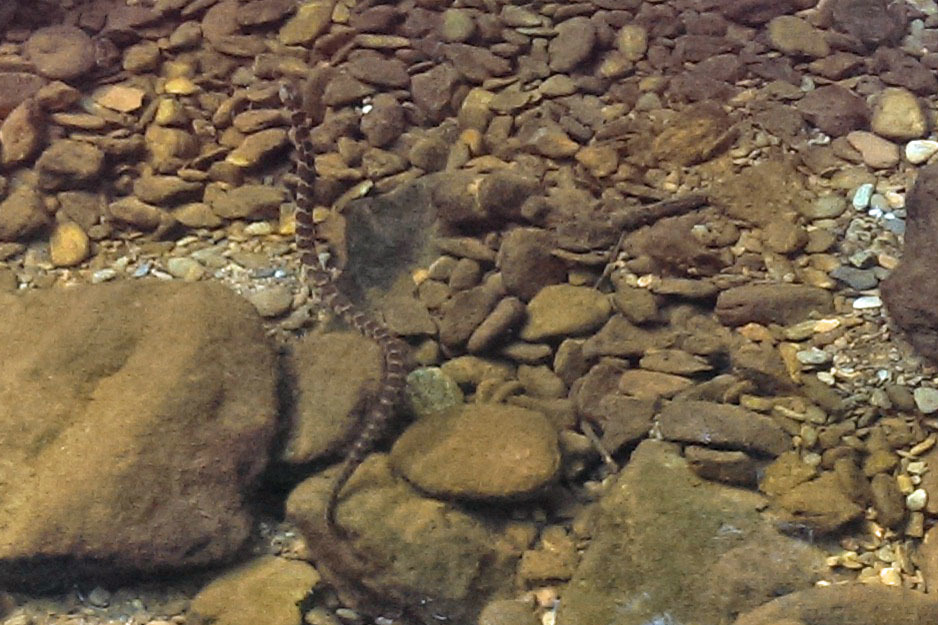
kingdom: Animalia
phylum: Chordata
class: Squamata
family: Colubridae
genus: Nerodia
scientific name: Nerodia sipedon
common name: Northern water snake
